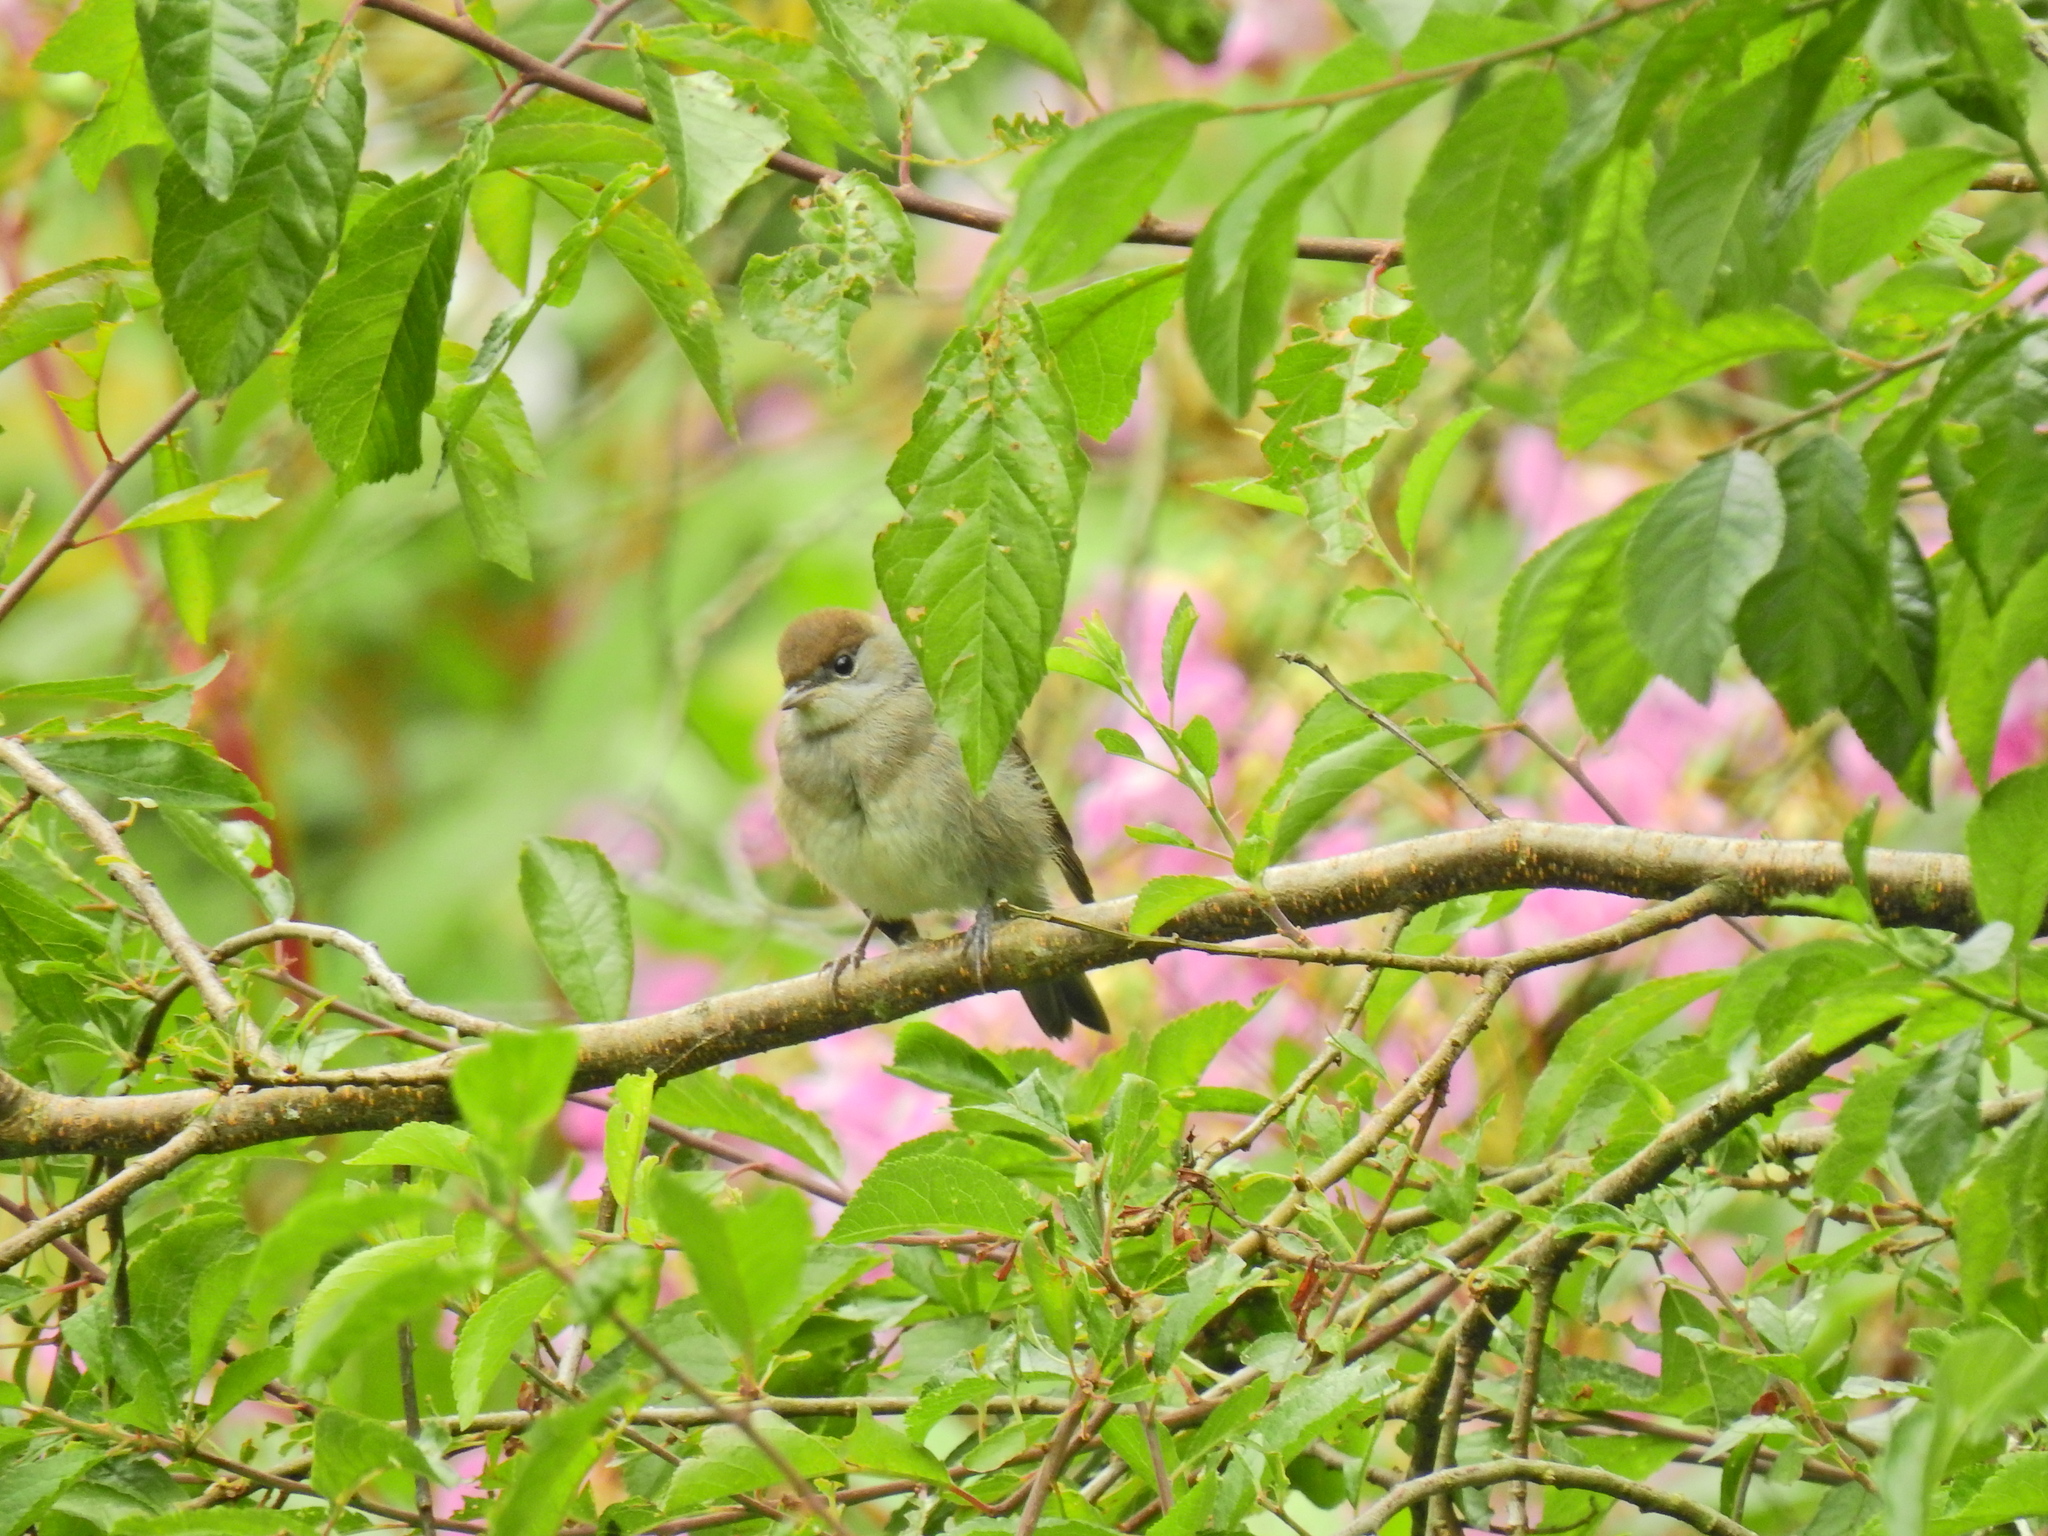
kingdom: Animalia
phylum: Chordata
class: Aves
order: Passeriformes
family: Sylviidae
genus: Sylvia
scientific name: Sylvia atricapilla
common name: Eurasian blackcap
